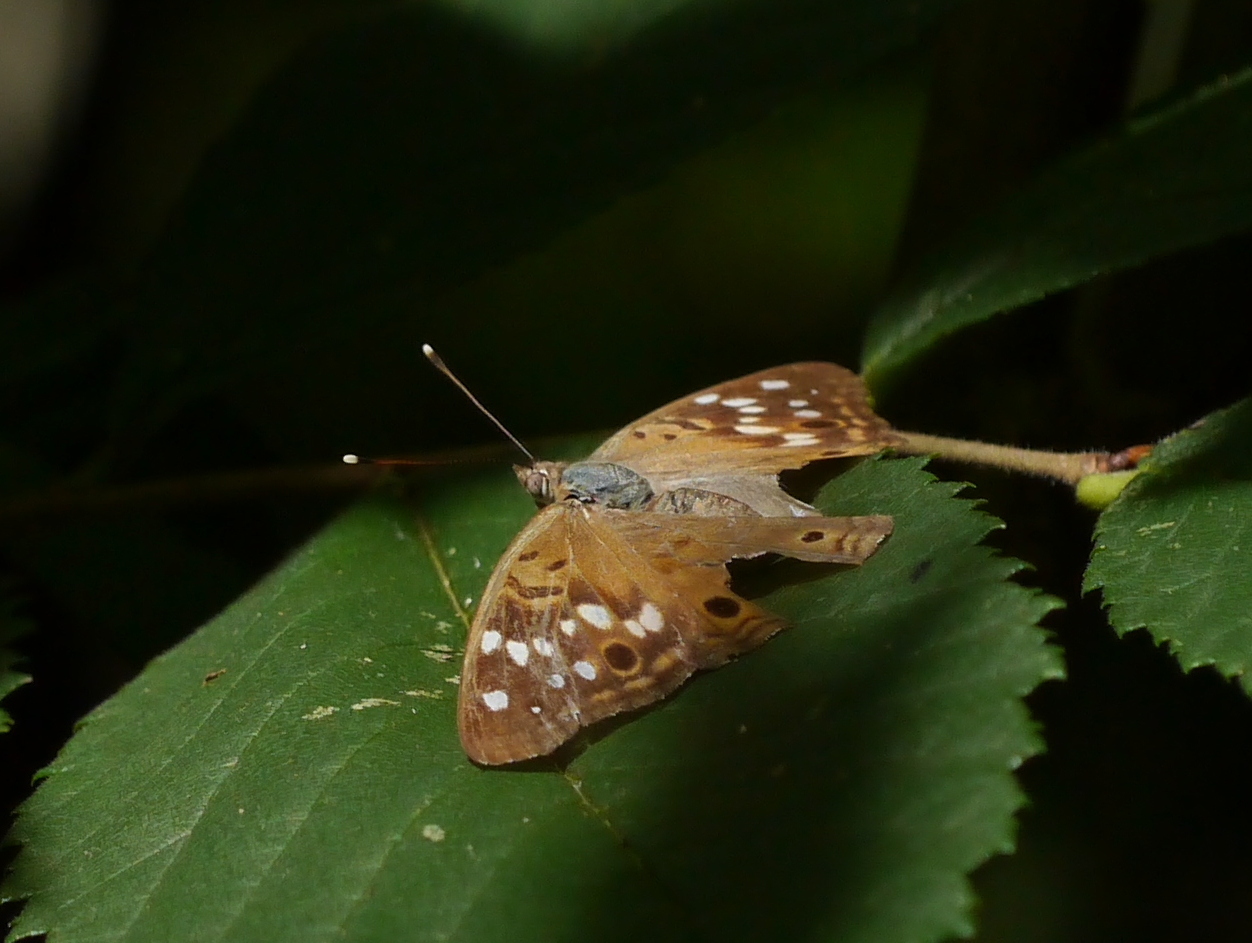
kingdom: Animalia
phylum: Arthropoda
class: Insecta
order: Lepidoptera
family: Nymphalidae
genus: Asterocampa
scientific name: Asterocampa celtis
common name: Hackberry emperor
